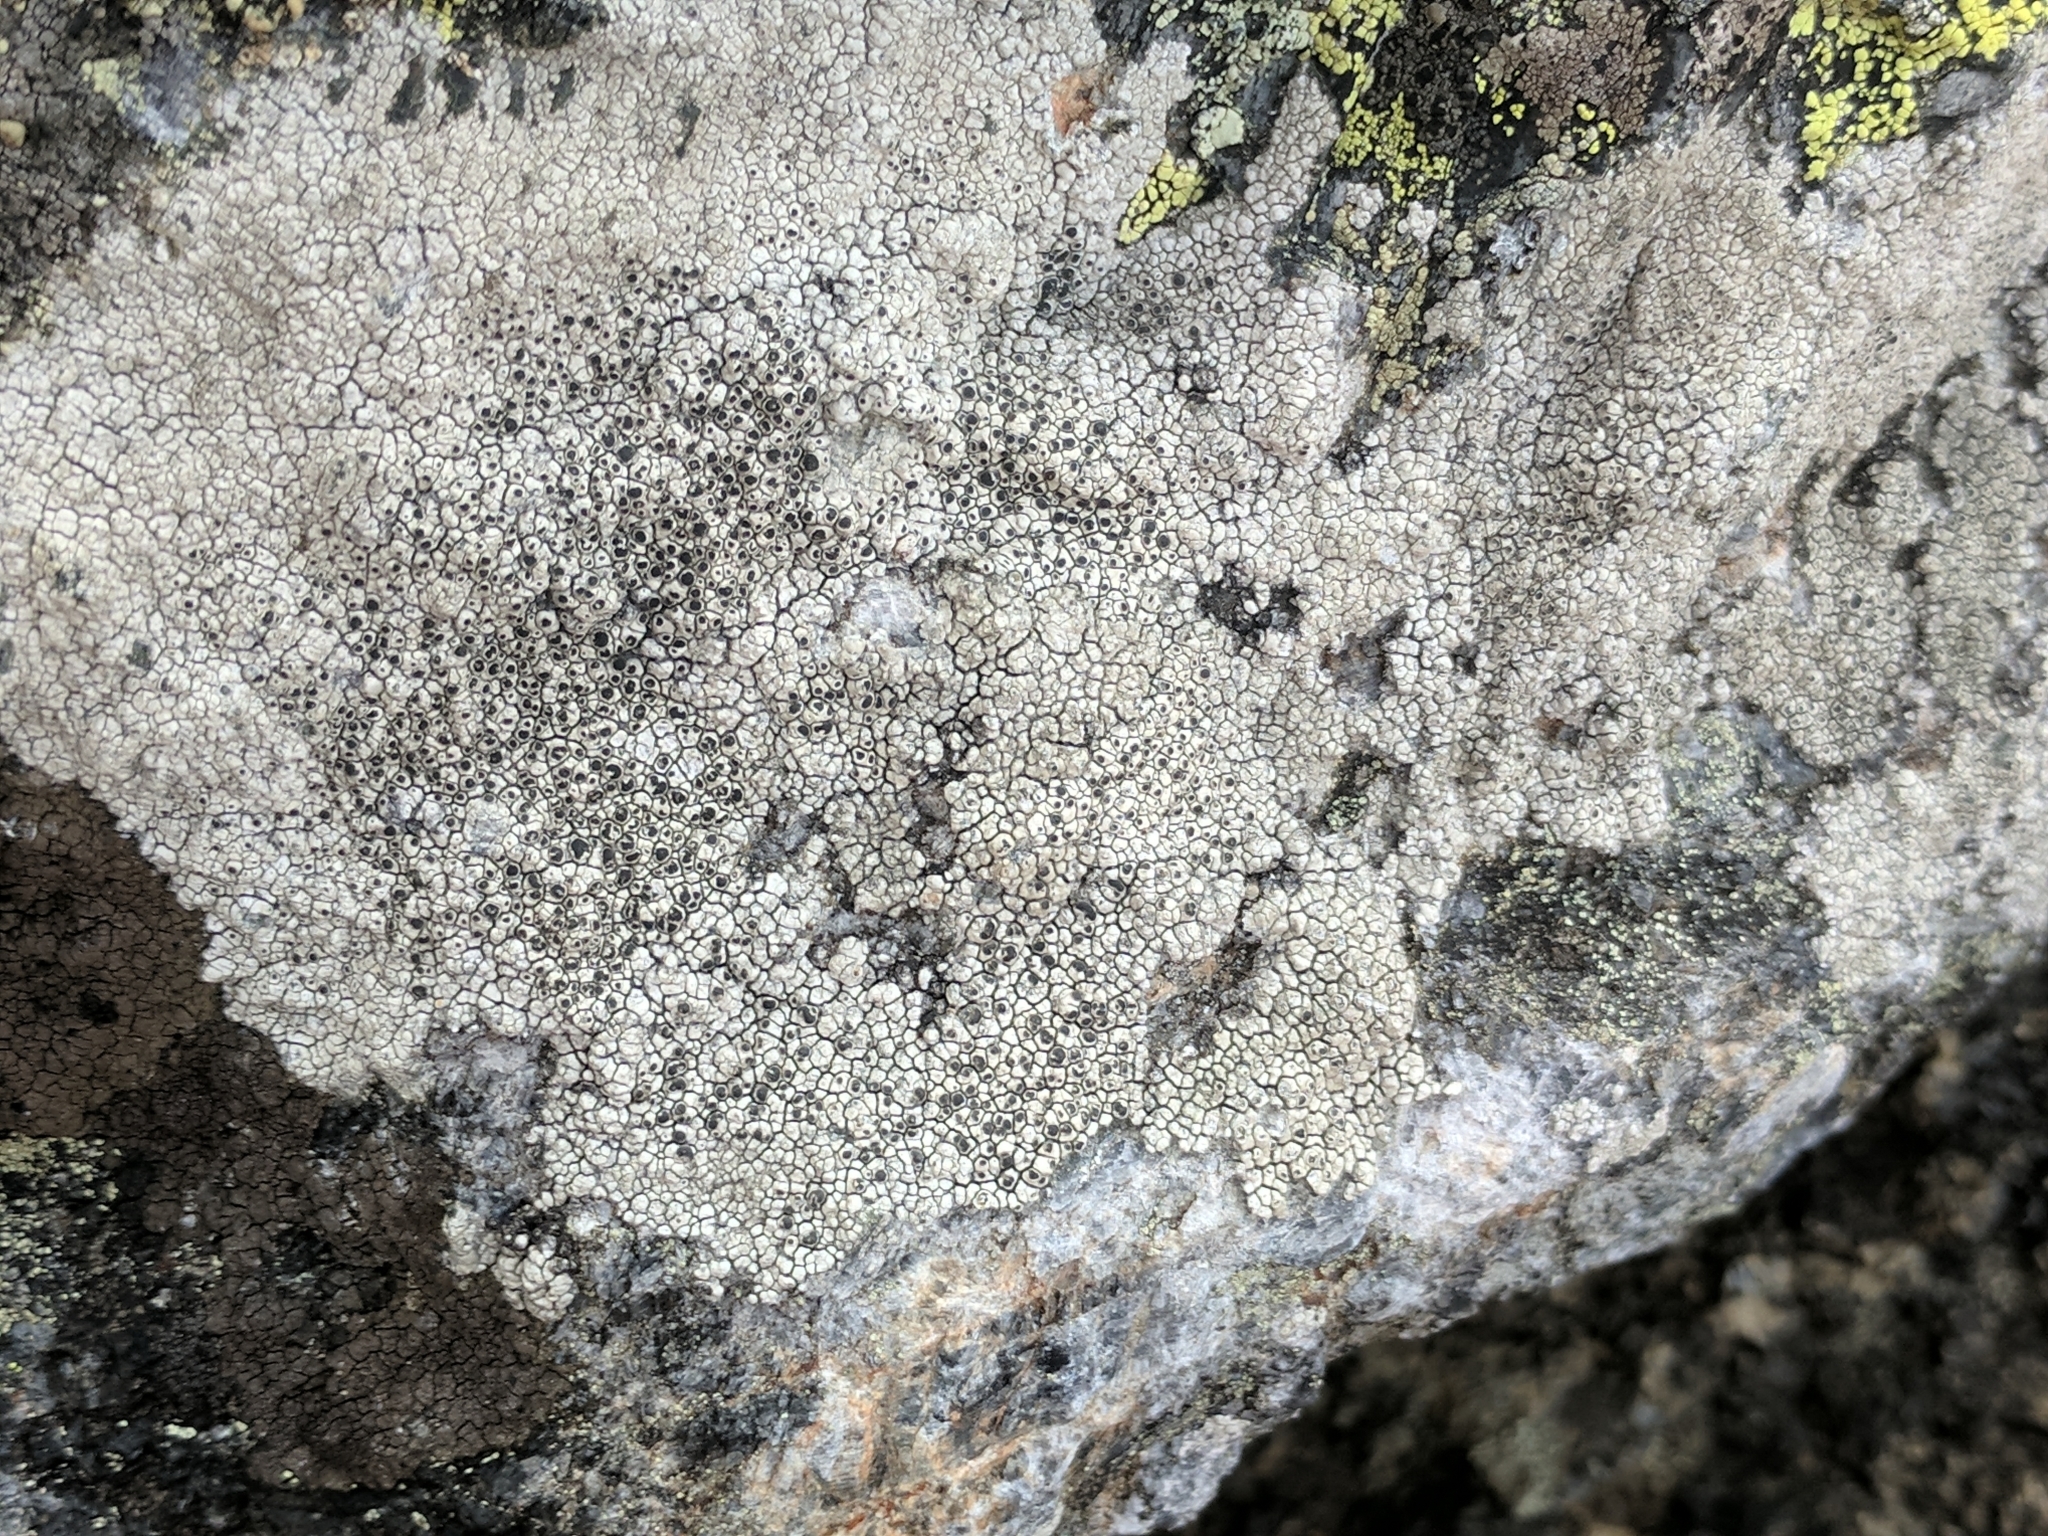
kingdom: Fungi
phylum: Ascomycota
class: Lecanoromycetes
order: Caliciales
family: Caliciaceae
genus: Thelomma
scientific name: Thelomma mammosum
